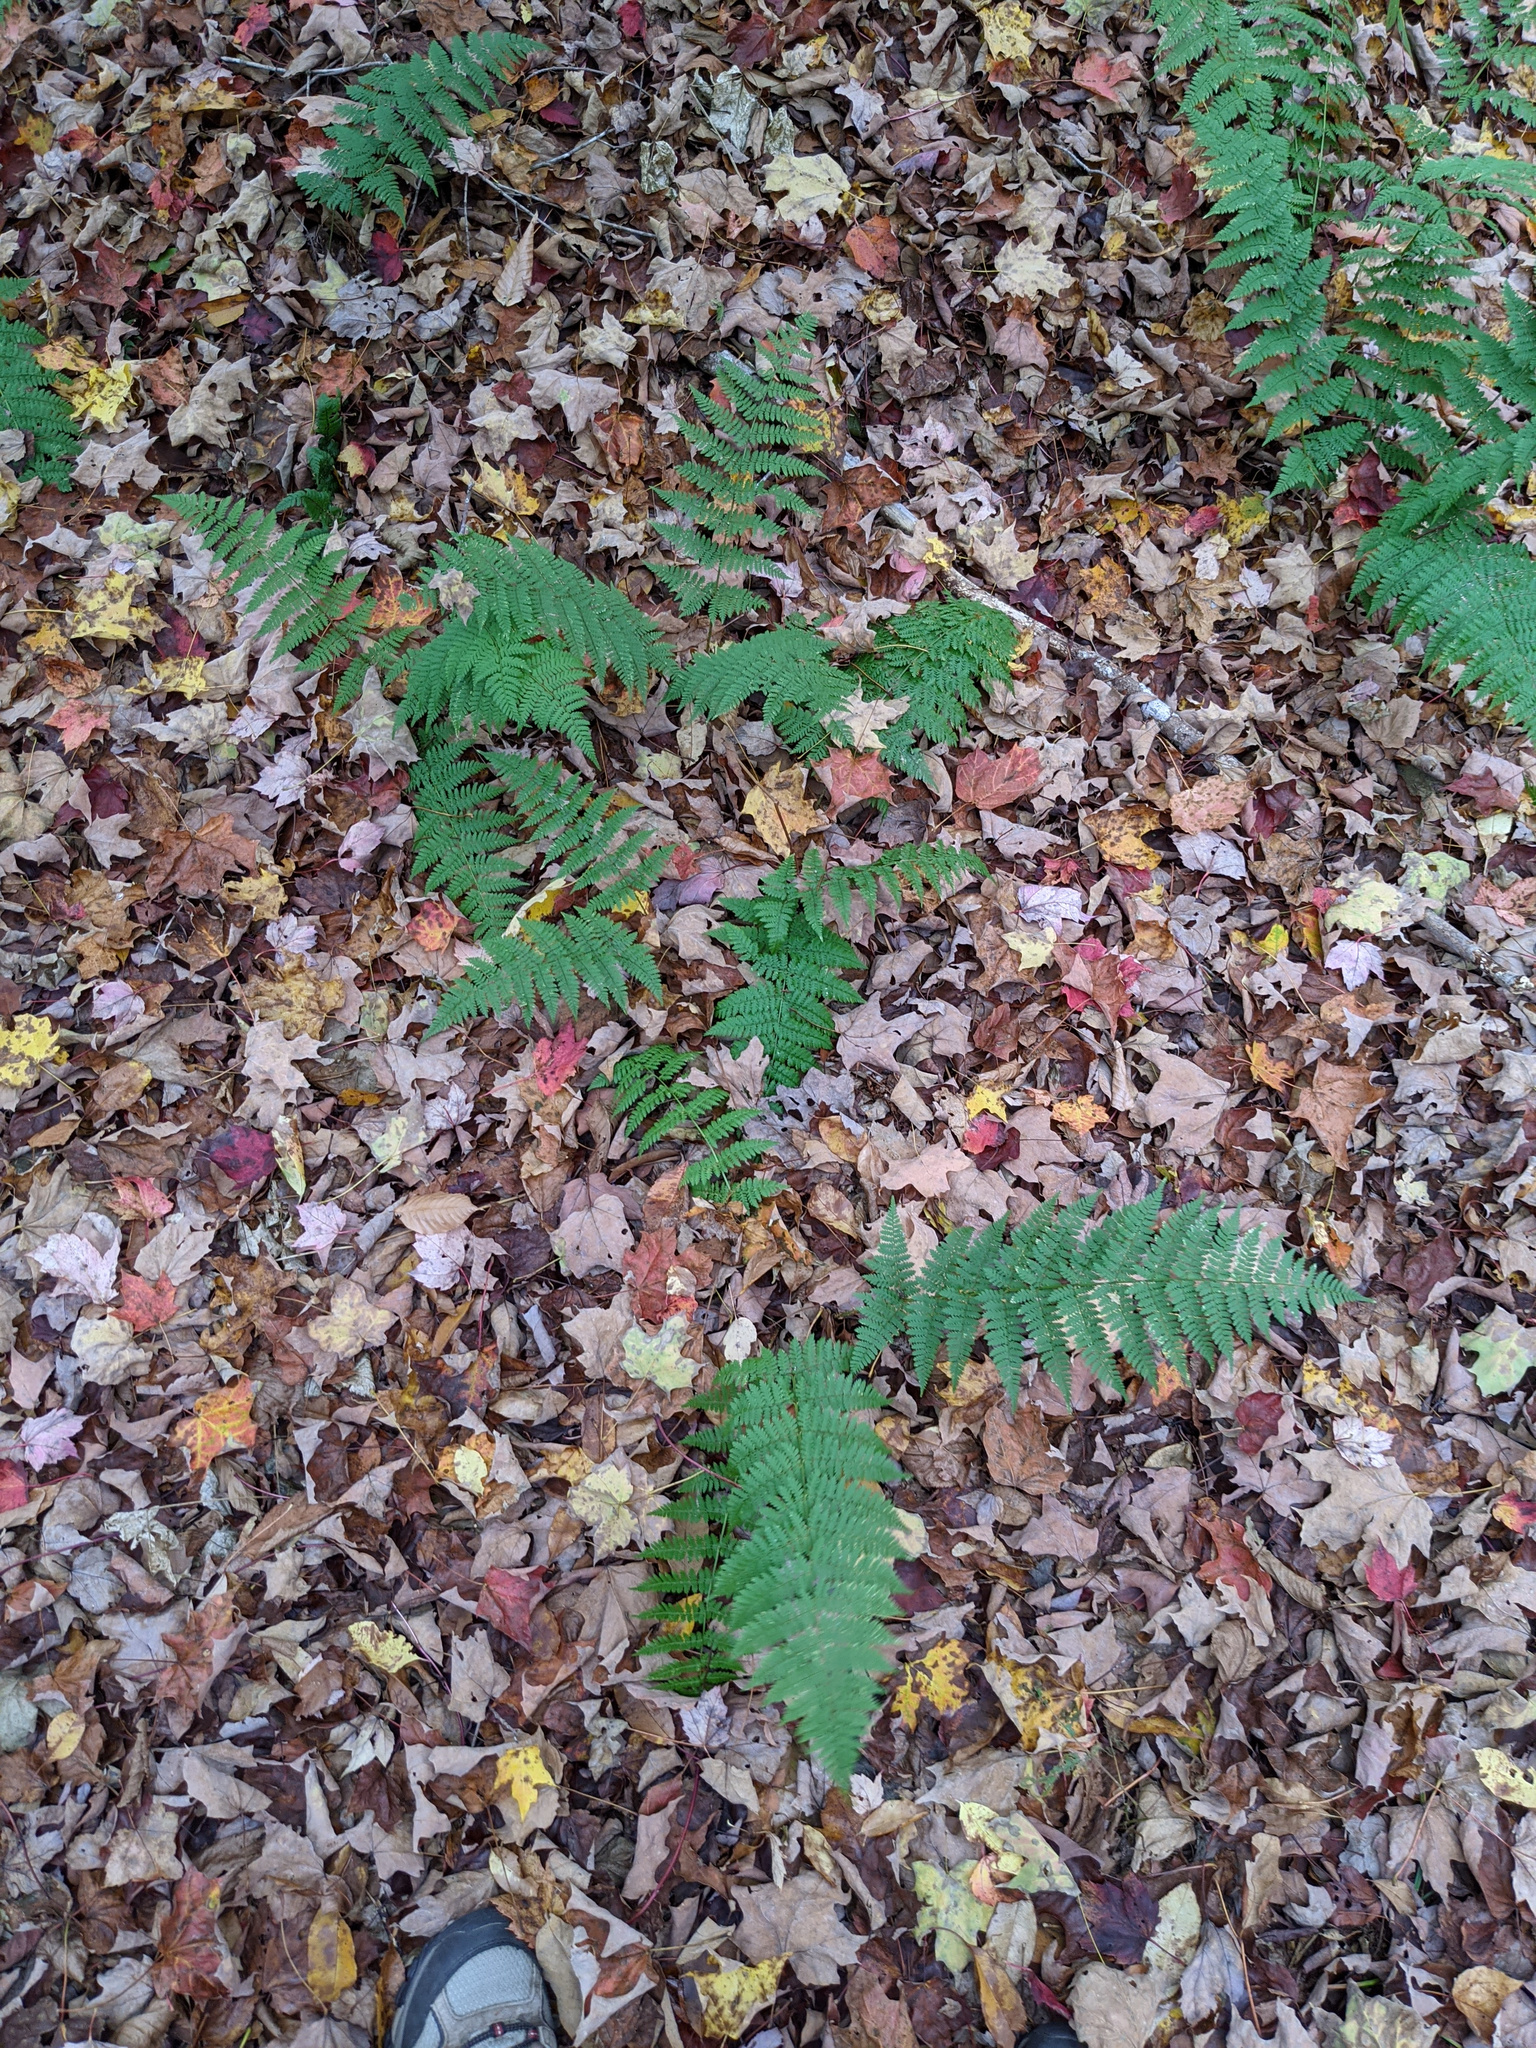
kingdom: Plantae
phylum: Tracheophyta
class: Polypodiopsida
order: Polypodiales
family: Dryopteridaceae
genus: Dryopteris
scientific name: Dryopteris intermedia
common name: Evergreen wood fern
